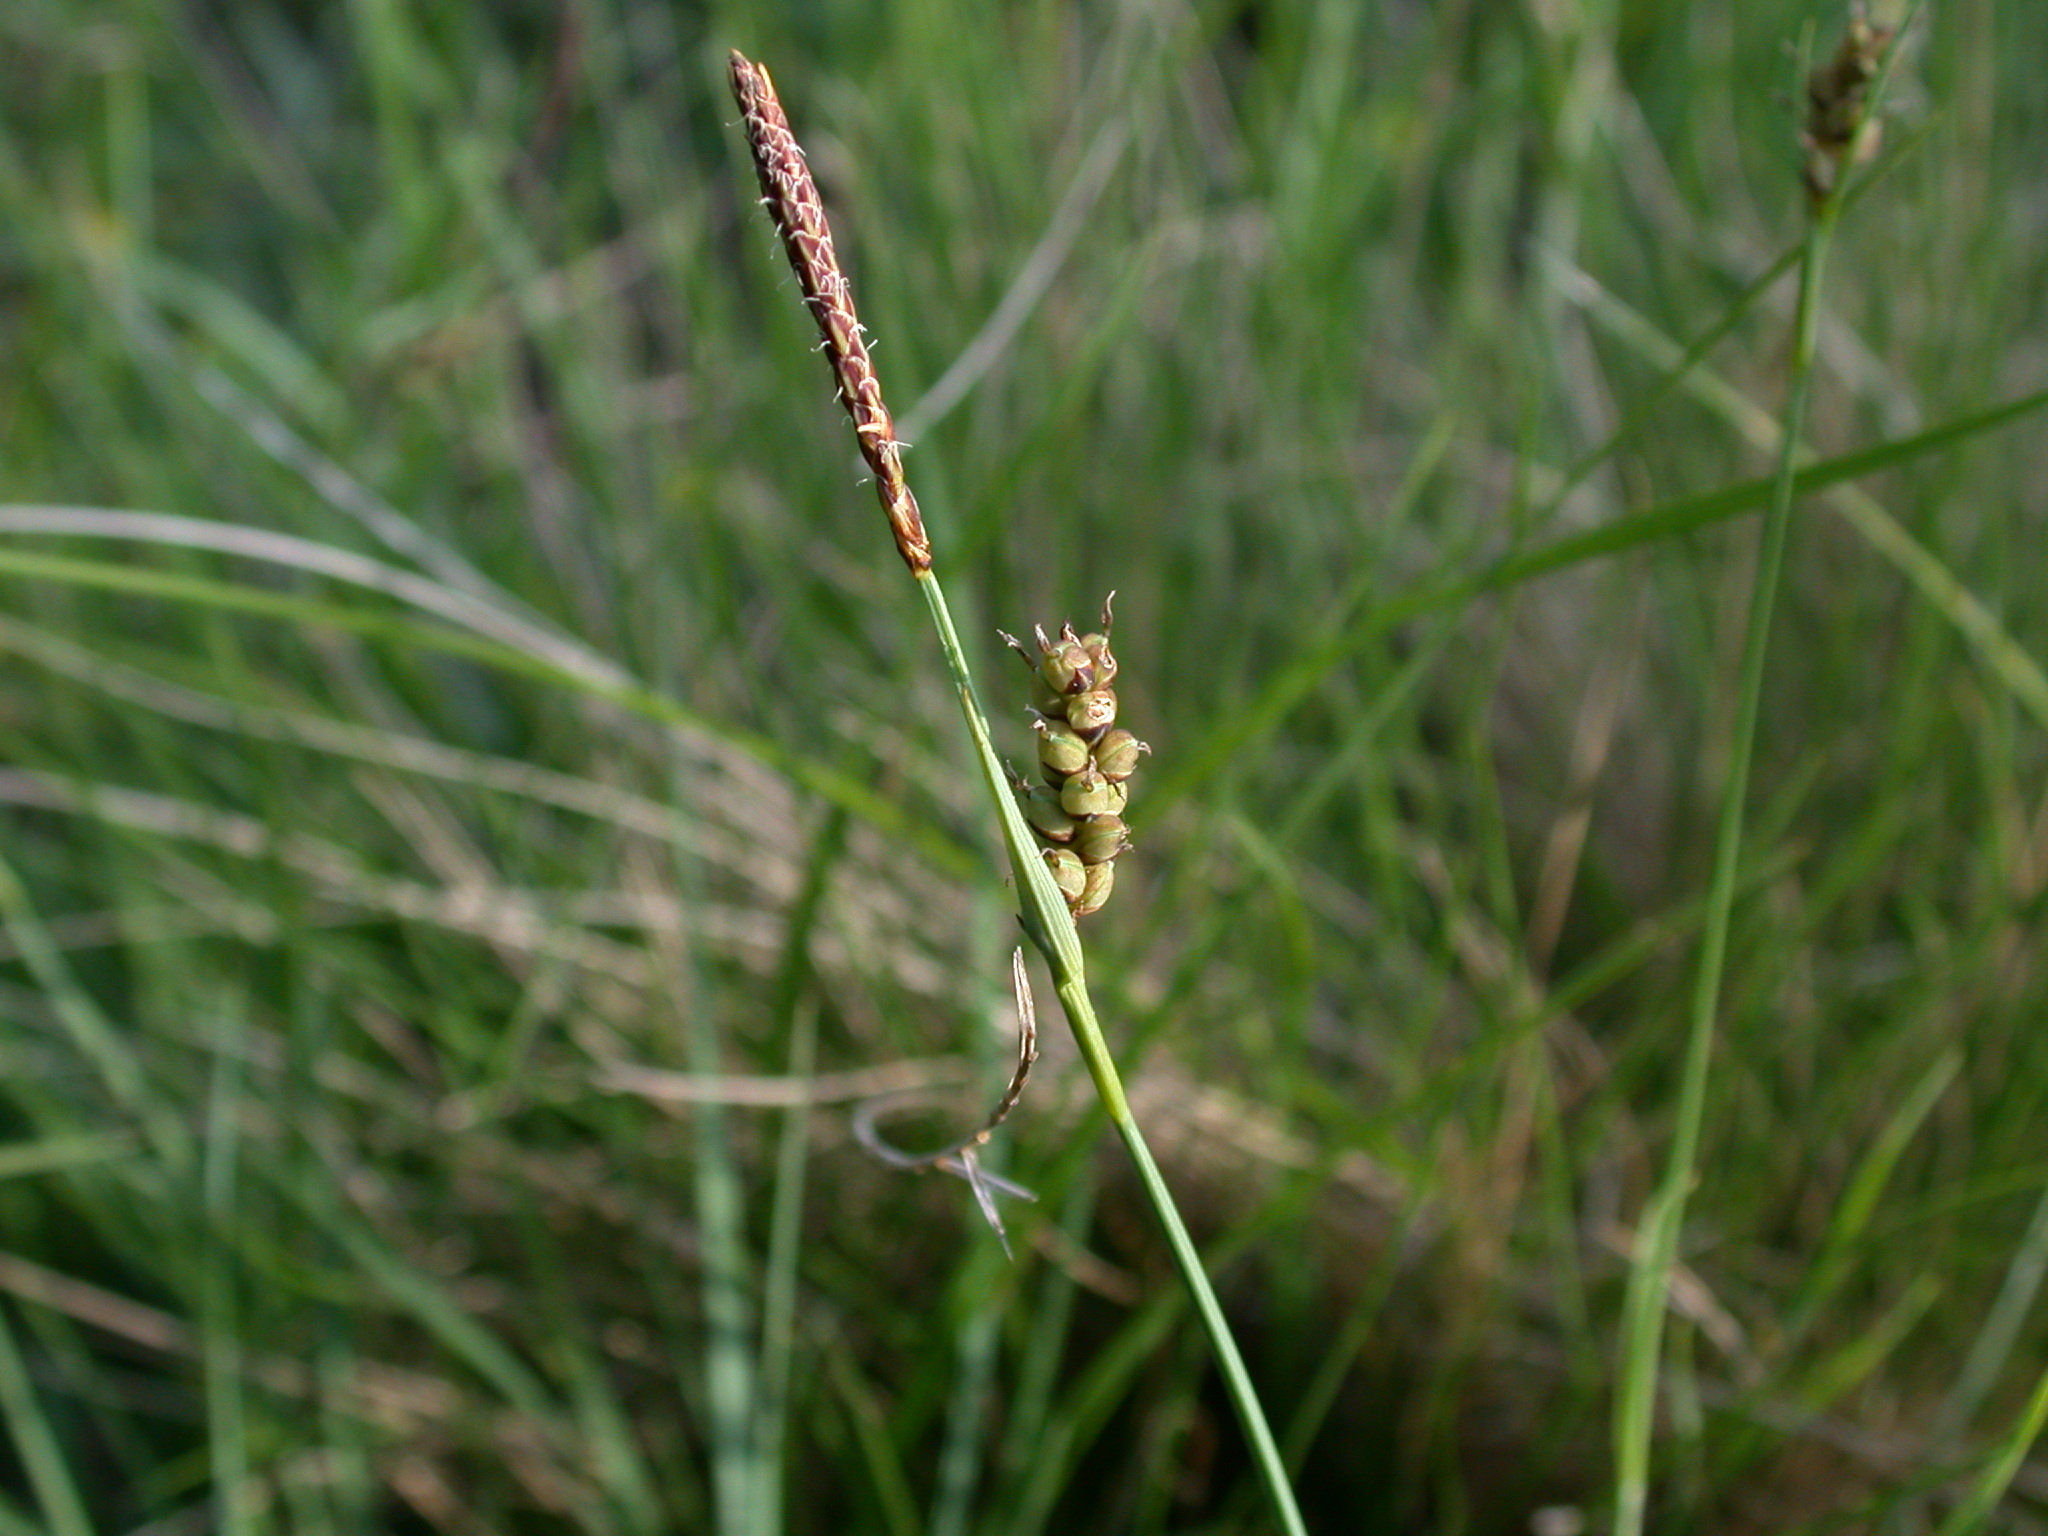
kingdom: Plantae
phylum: Tracheophyta
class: Liliopsida
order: Poales
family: Cyperaceae
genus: Carex
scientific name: Carex panicea
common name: Carnation sedge
